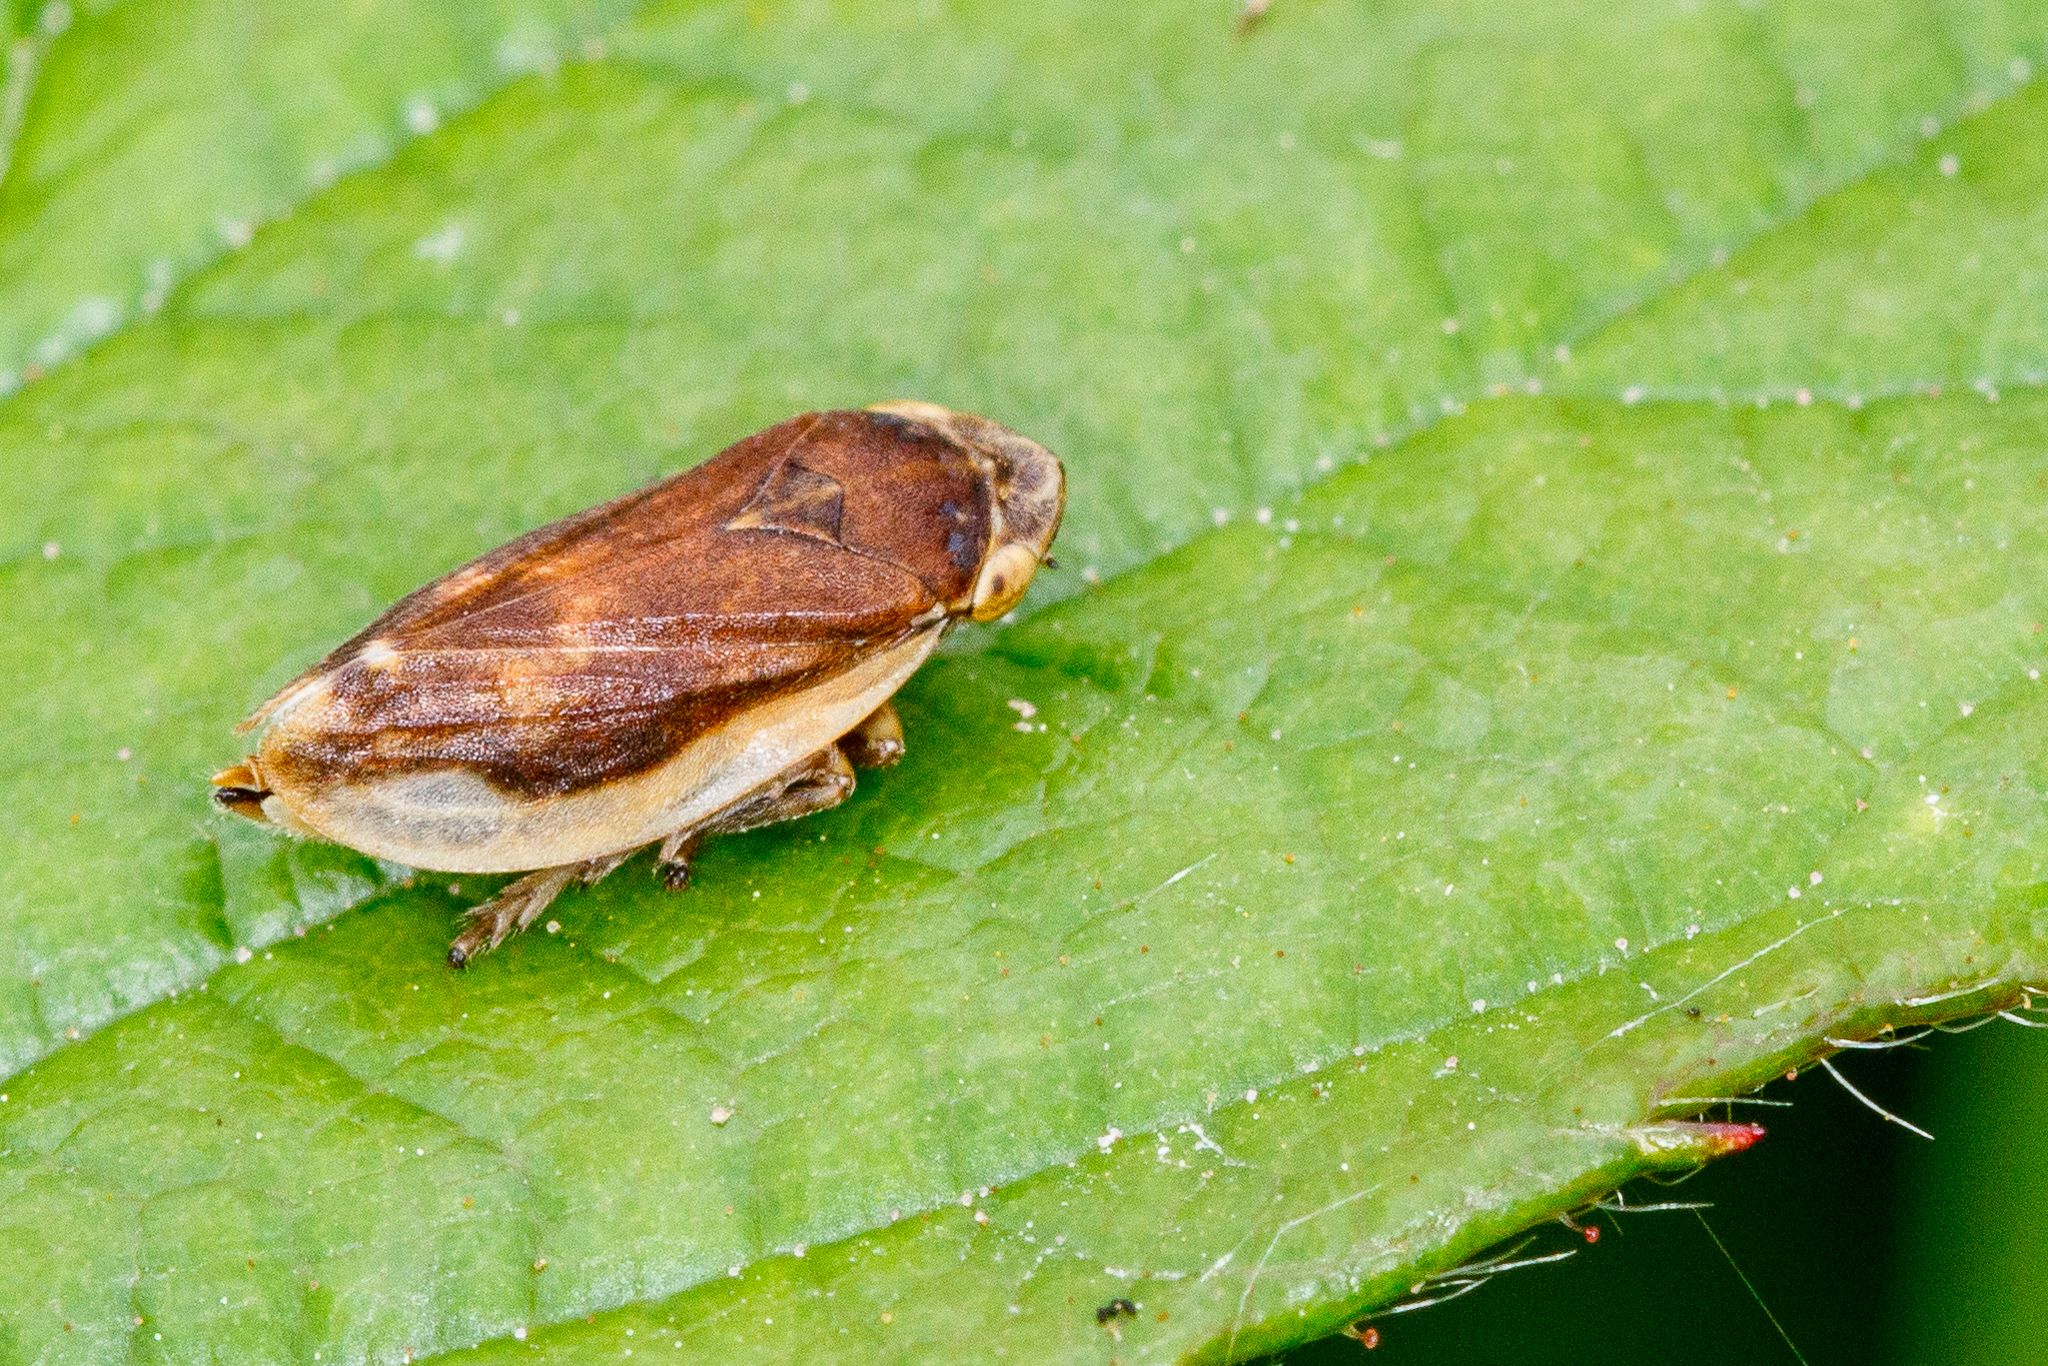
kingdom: Animalia
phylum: Arthropoda
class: Insecta
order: Hemiptera
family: Aphrophoridae
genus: Philaenus
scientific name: Philaenus spumarius
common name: Meadow spittlebug
